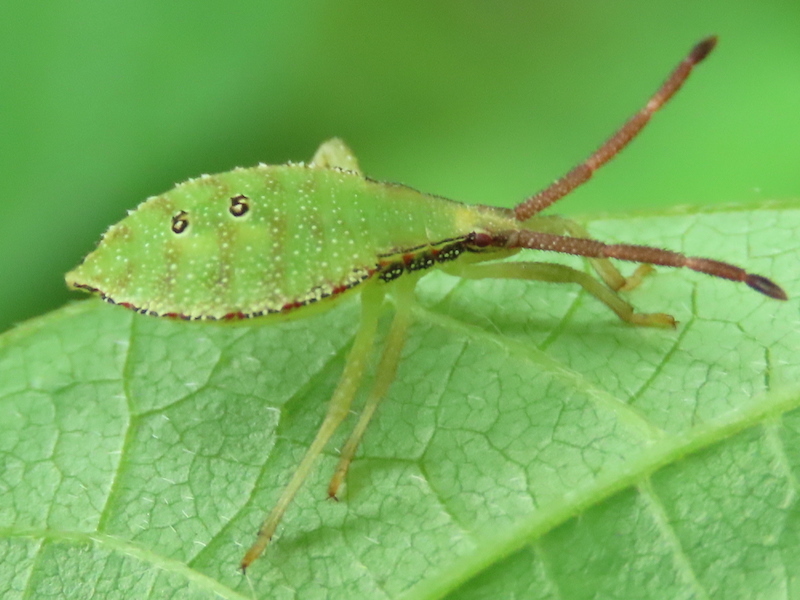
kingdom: Animalia
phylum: Arthropoda
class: Insecta
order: Hemiptera
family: Coreidae
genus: Piezogaster
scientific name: Piezogaster calcarator
